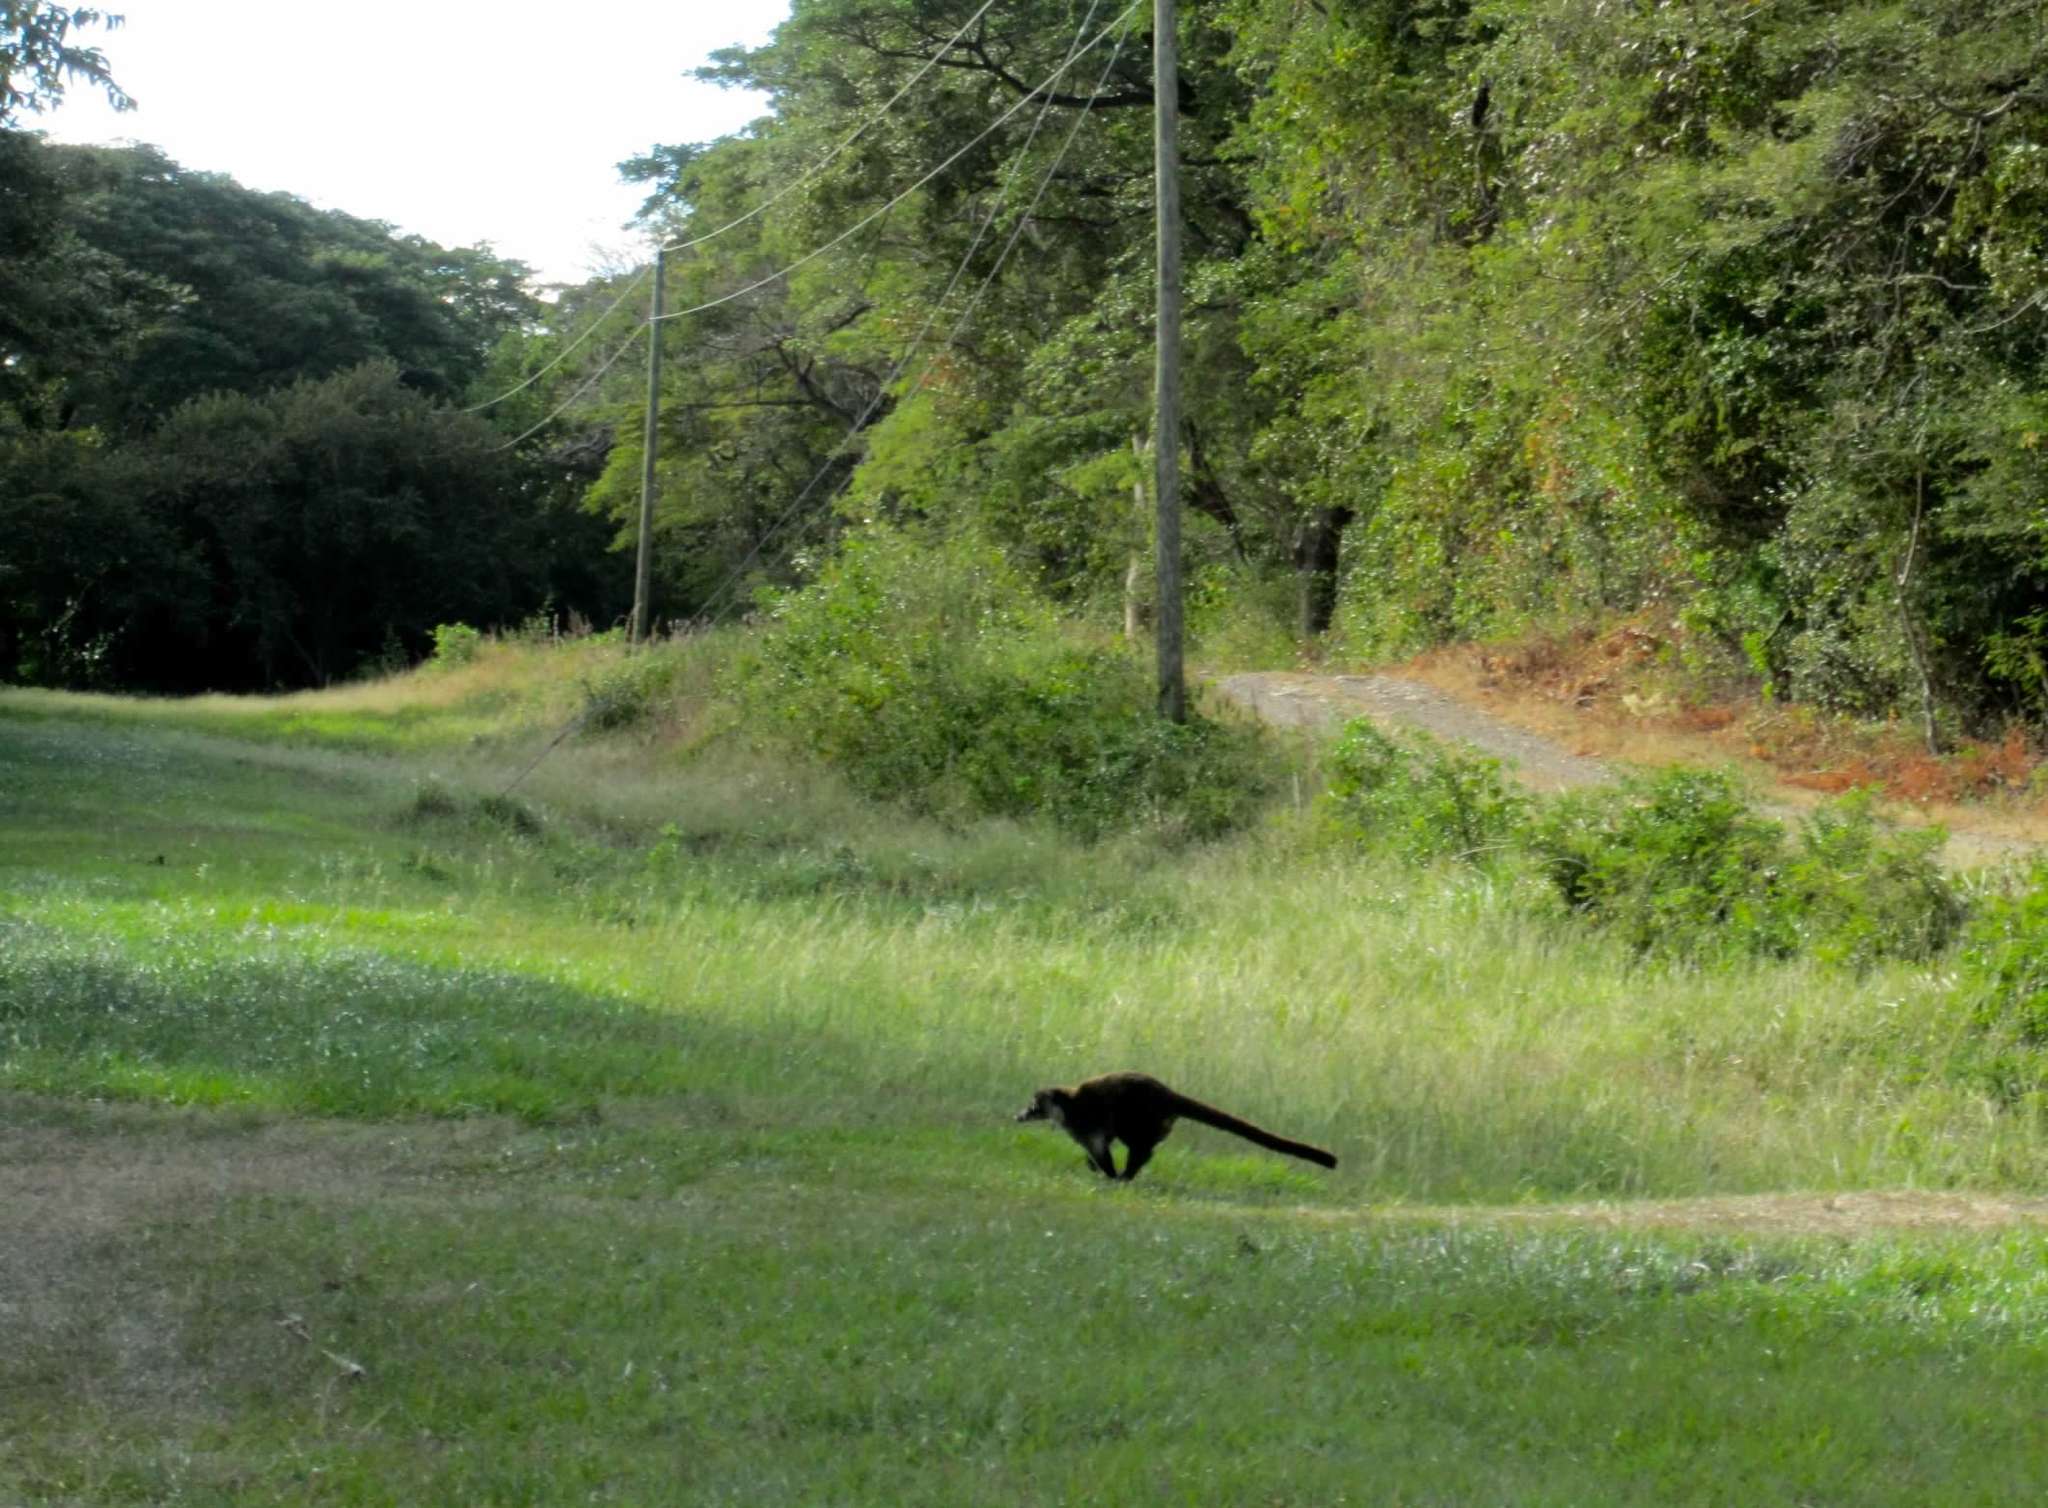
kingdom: Animalia
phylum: Chordata
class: Mammalia
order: Carnivora
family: Procyonidae
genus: Nasua
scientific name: Nasua narica
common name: White-nosed coati
